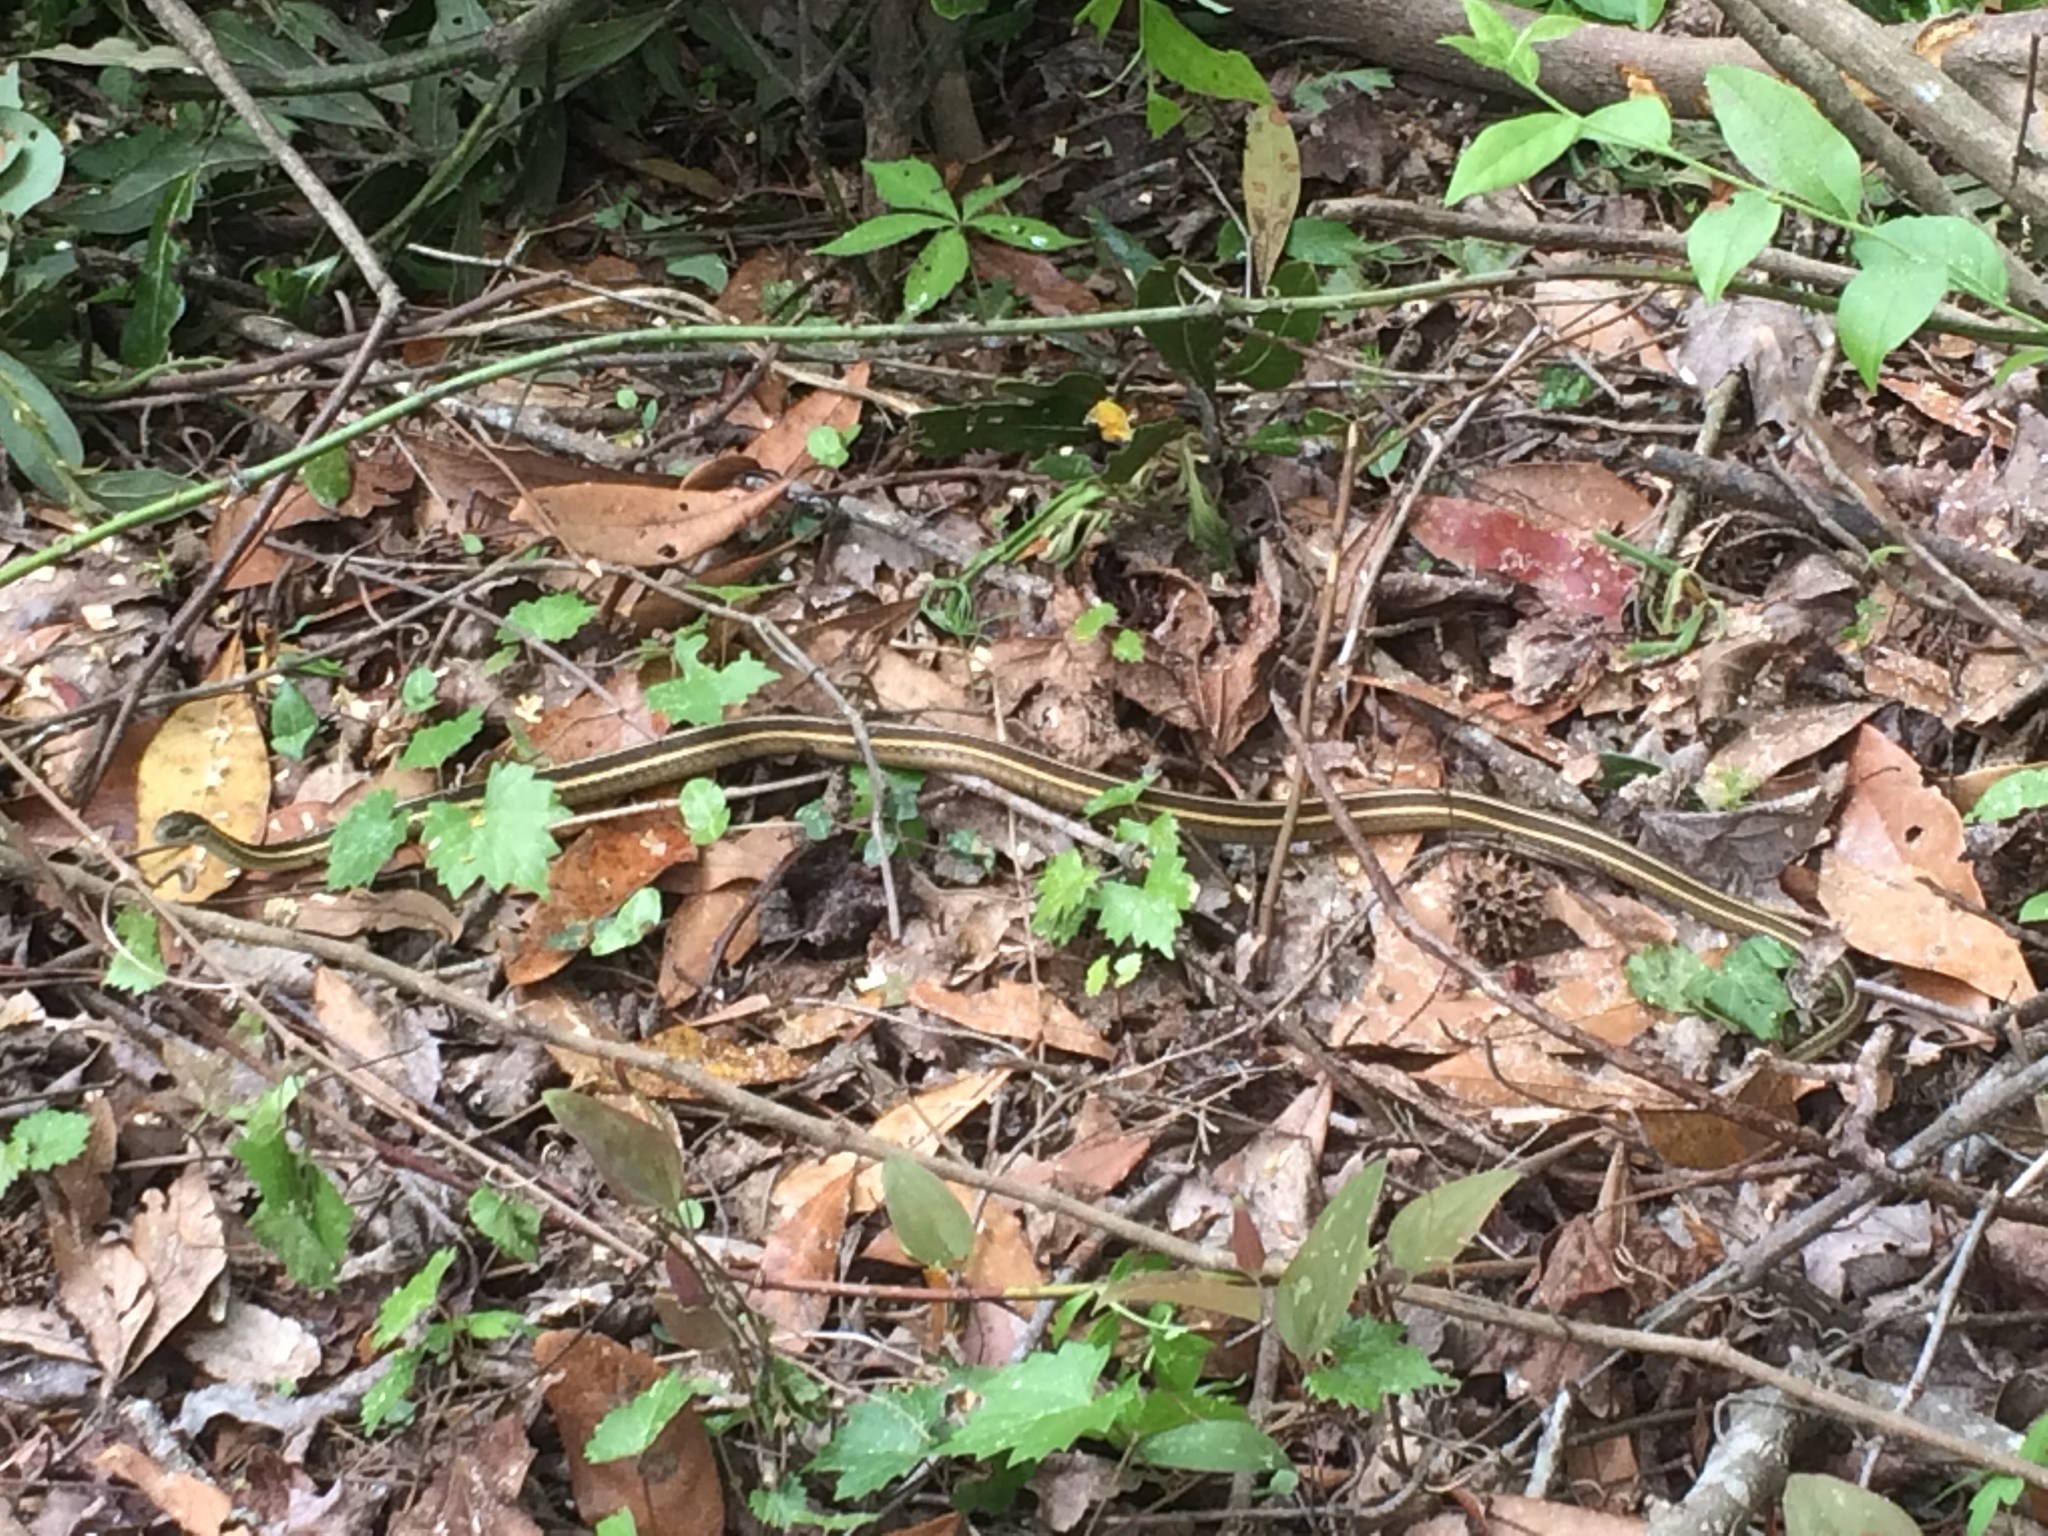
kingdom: Animalia
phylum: Chordata
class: Squamata
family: Colubridae
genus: Thamnophis
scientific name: Thamnophis saurita
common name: Eastern ribbonsnake
